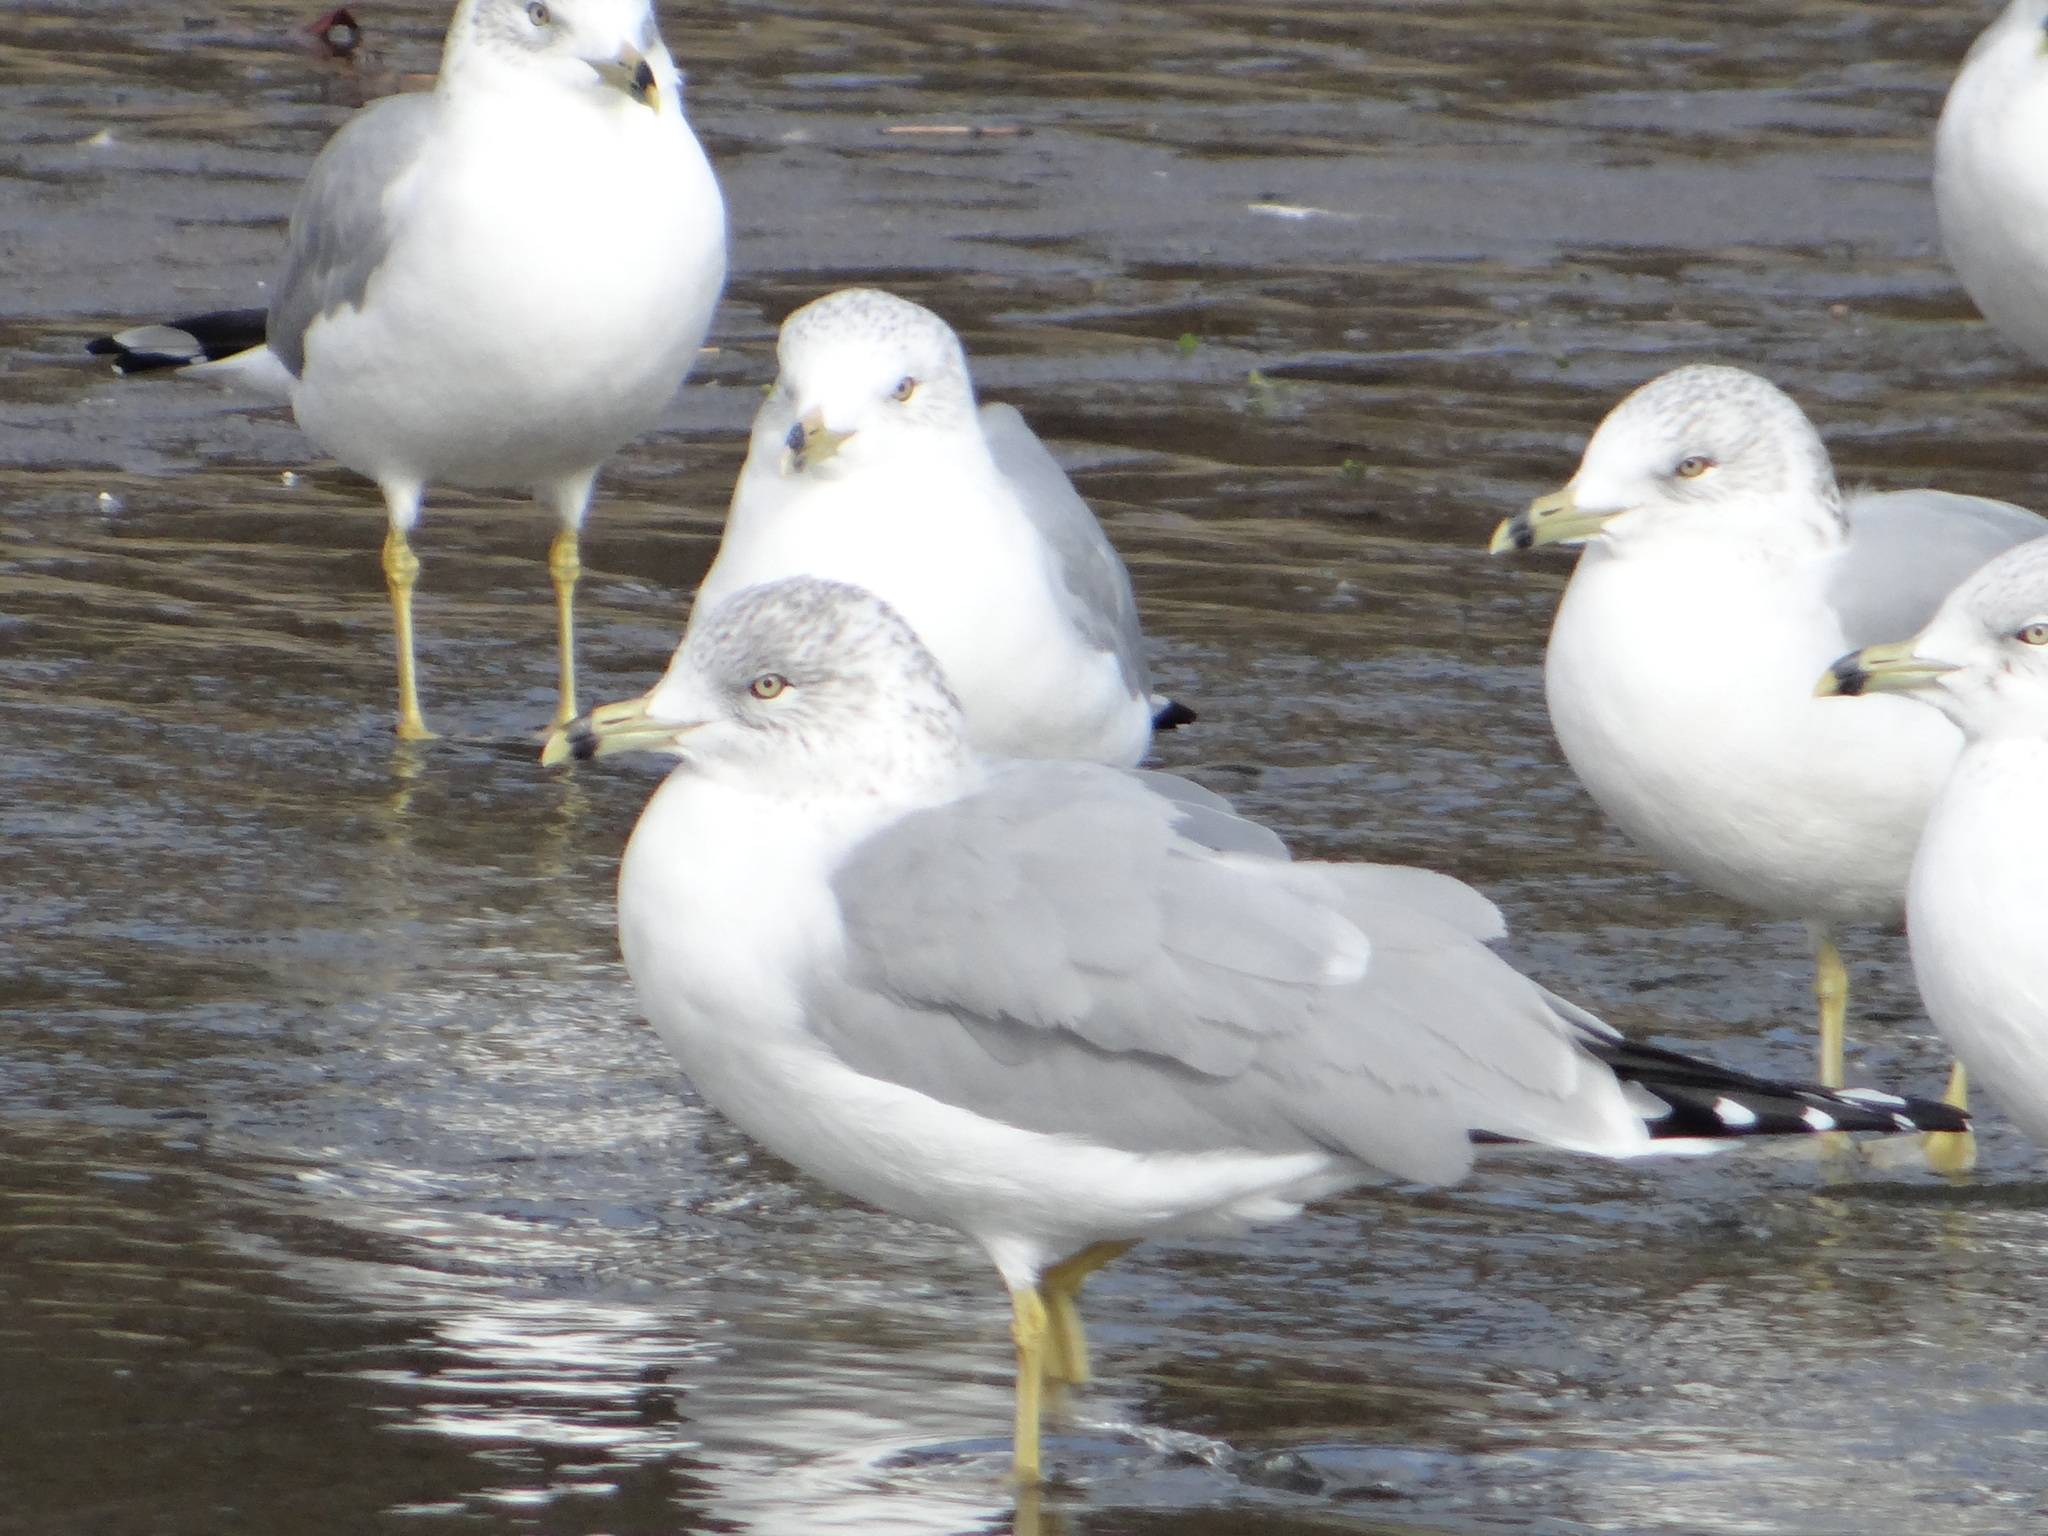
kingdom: Animalia
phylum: Chordata
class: Aves
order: Charadriiformes
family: Laridae
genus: Larus
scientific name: Larus delawarensis
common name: Ring-billed gull
